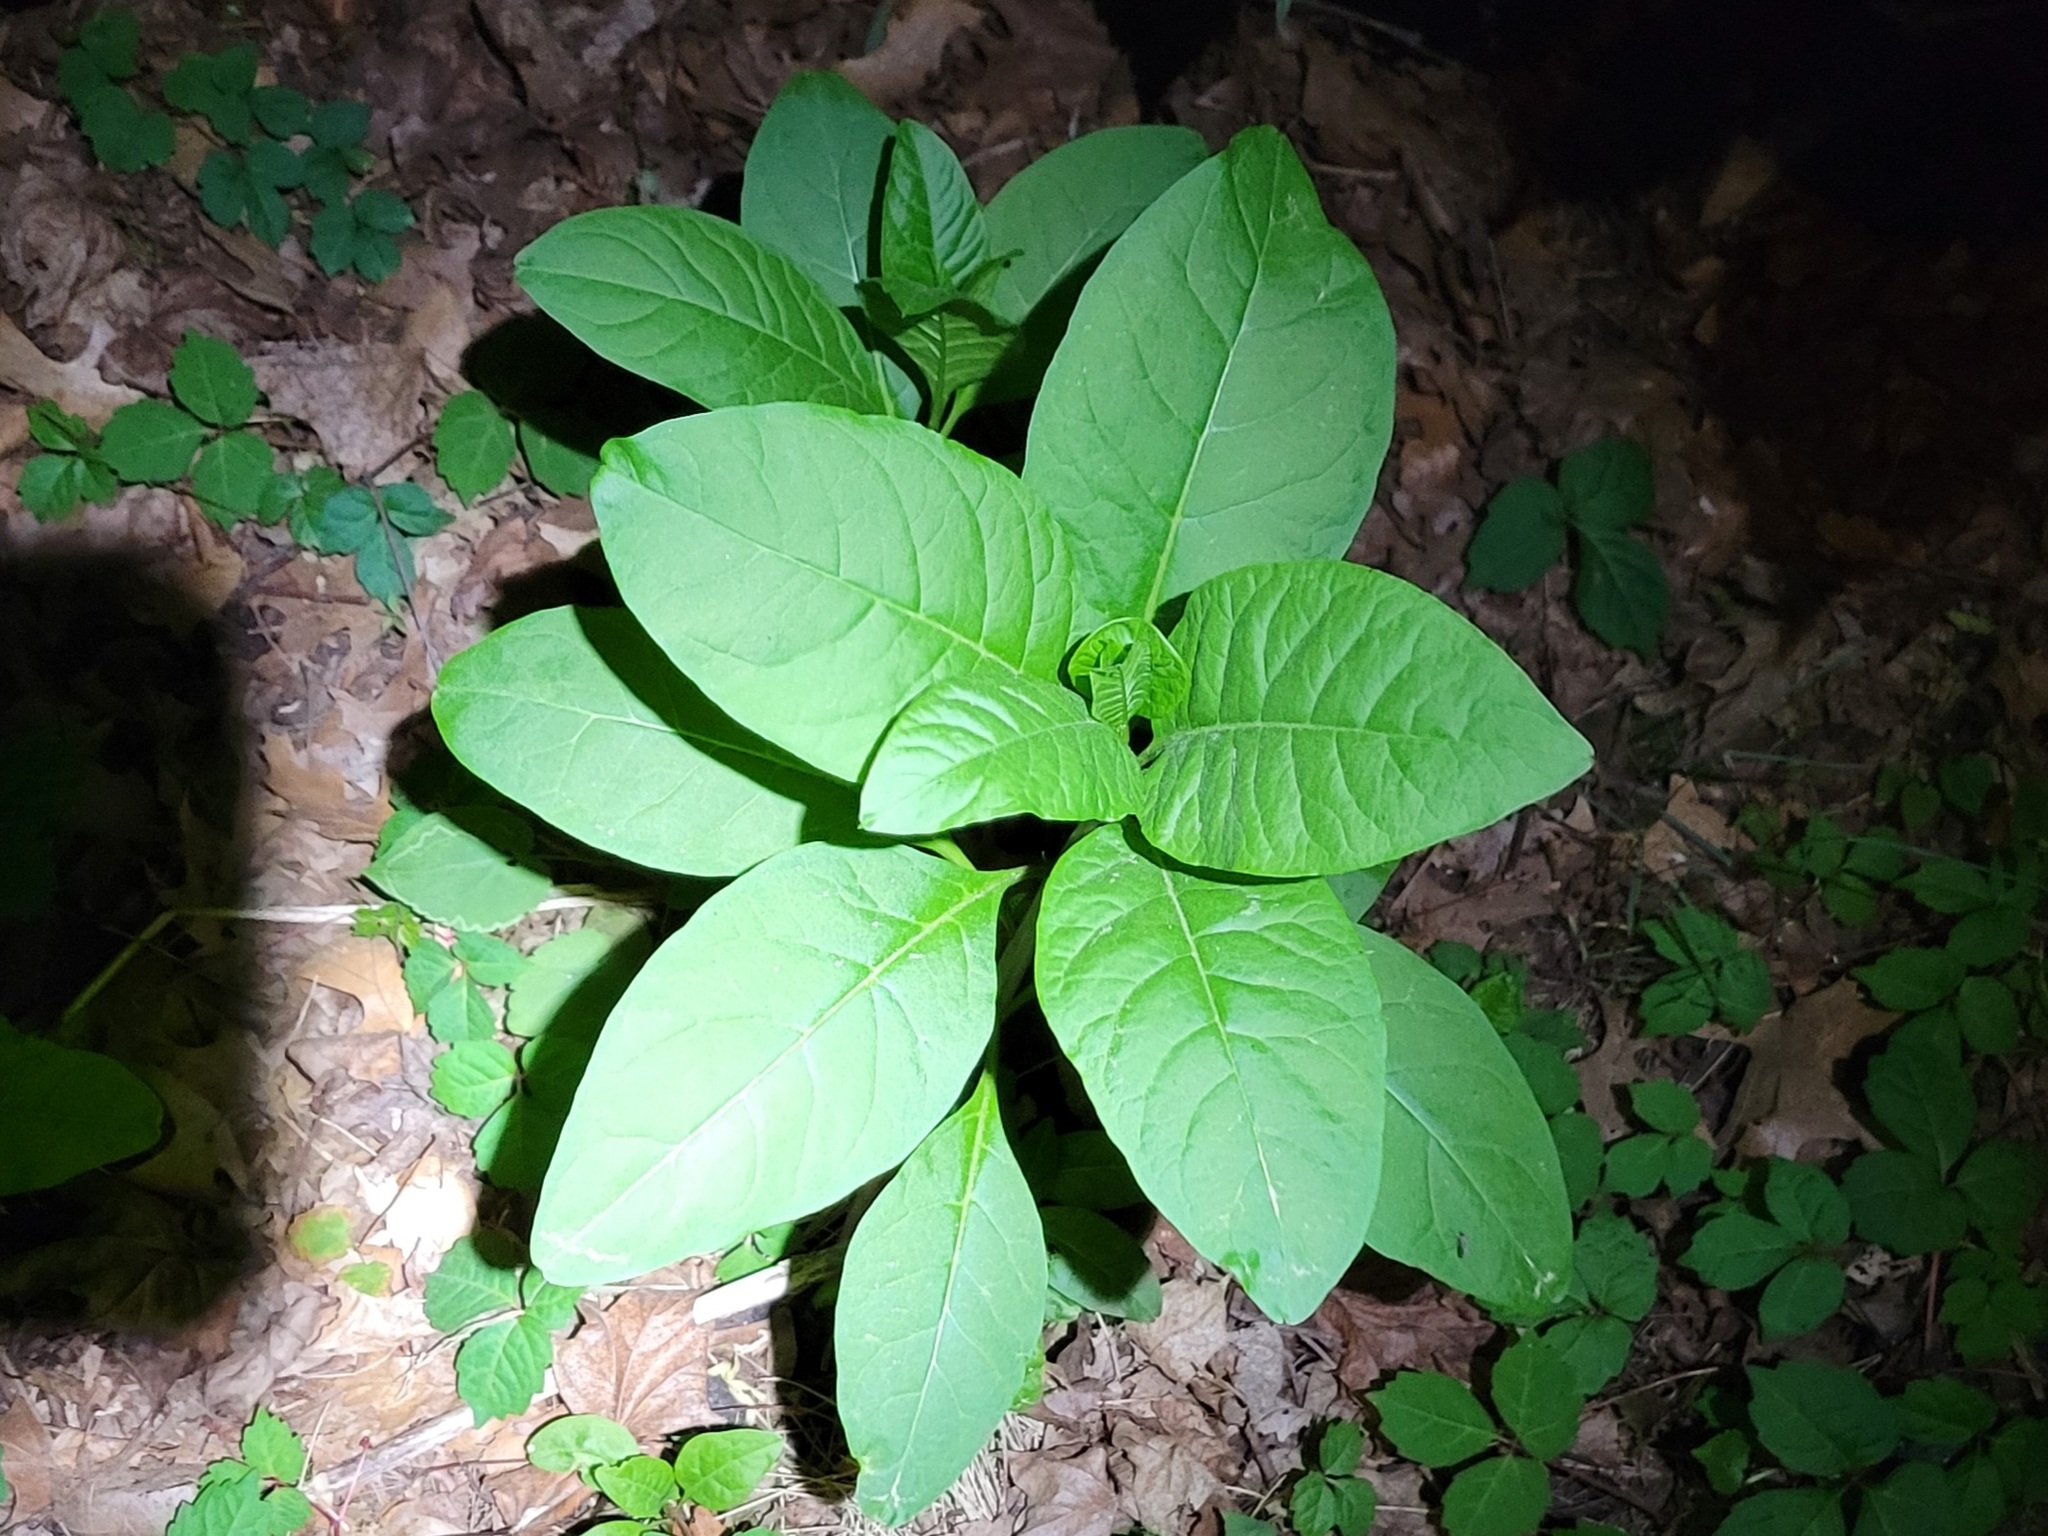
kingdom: Plantae
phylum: Tracheophyta
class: Magnoliopsida
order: Caryophyllales
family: Phytolaccaceae
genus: Phytolacca
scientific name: Phytolacca americana
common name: American pokeweed
